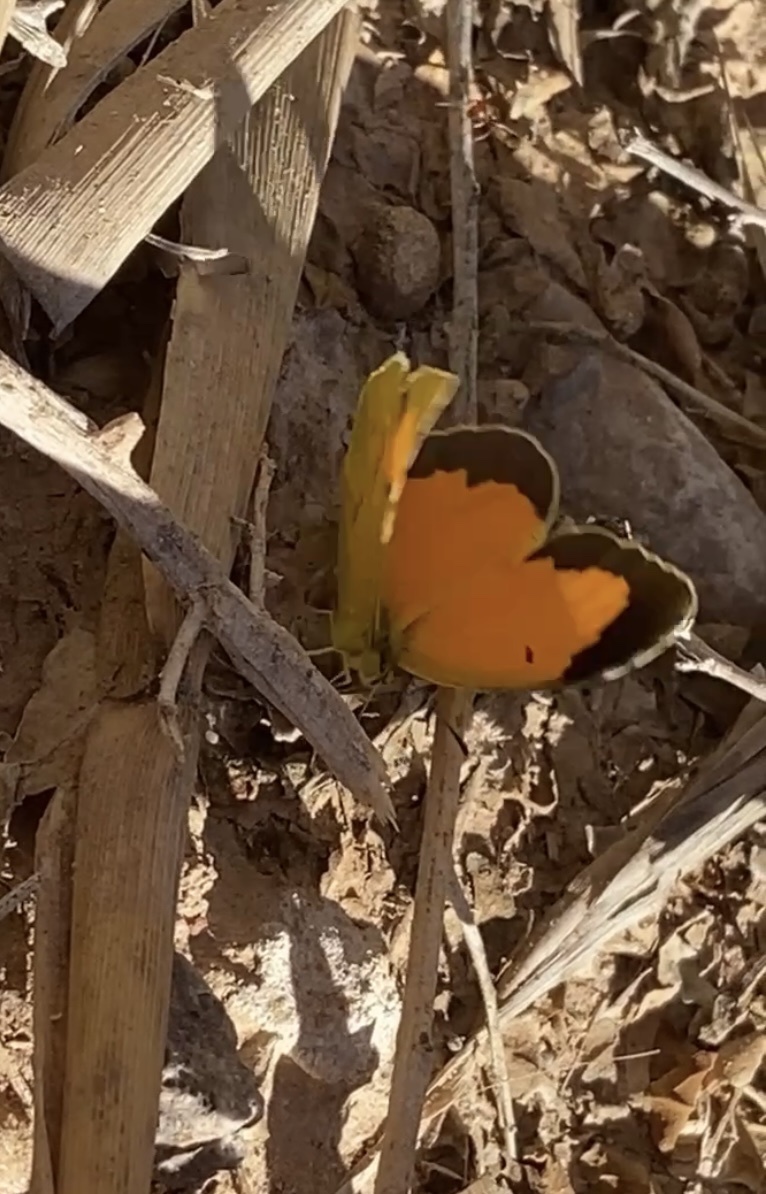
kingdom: Animalia
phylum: Arthropoda
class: Insecta
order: Lepidoptera
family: Pieridae
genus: Abaeis
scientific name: Abaeis nicippe
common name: Sleepy orange
